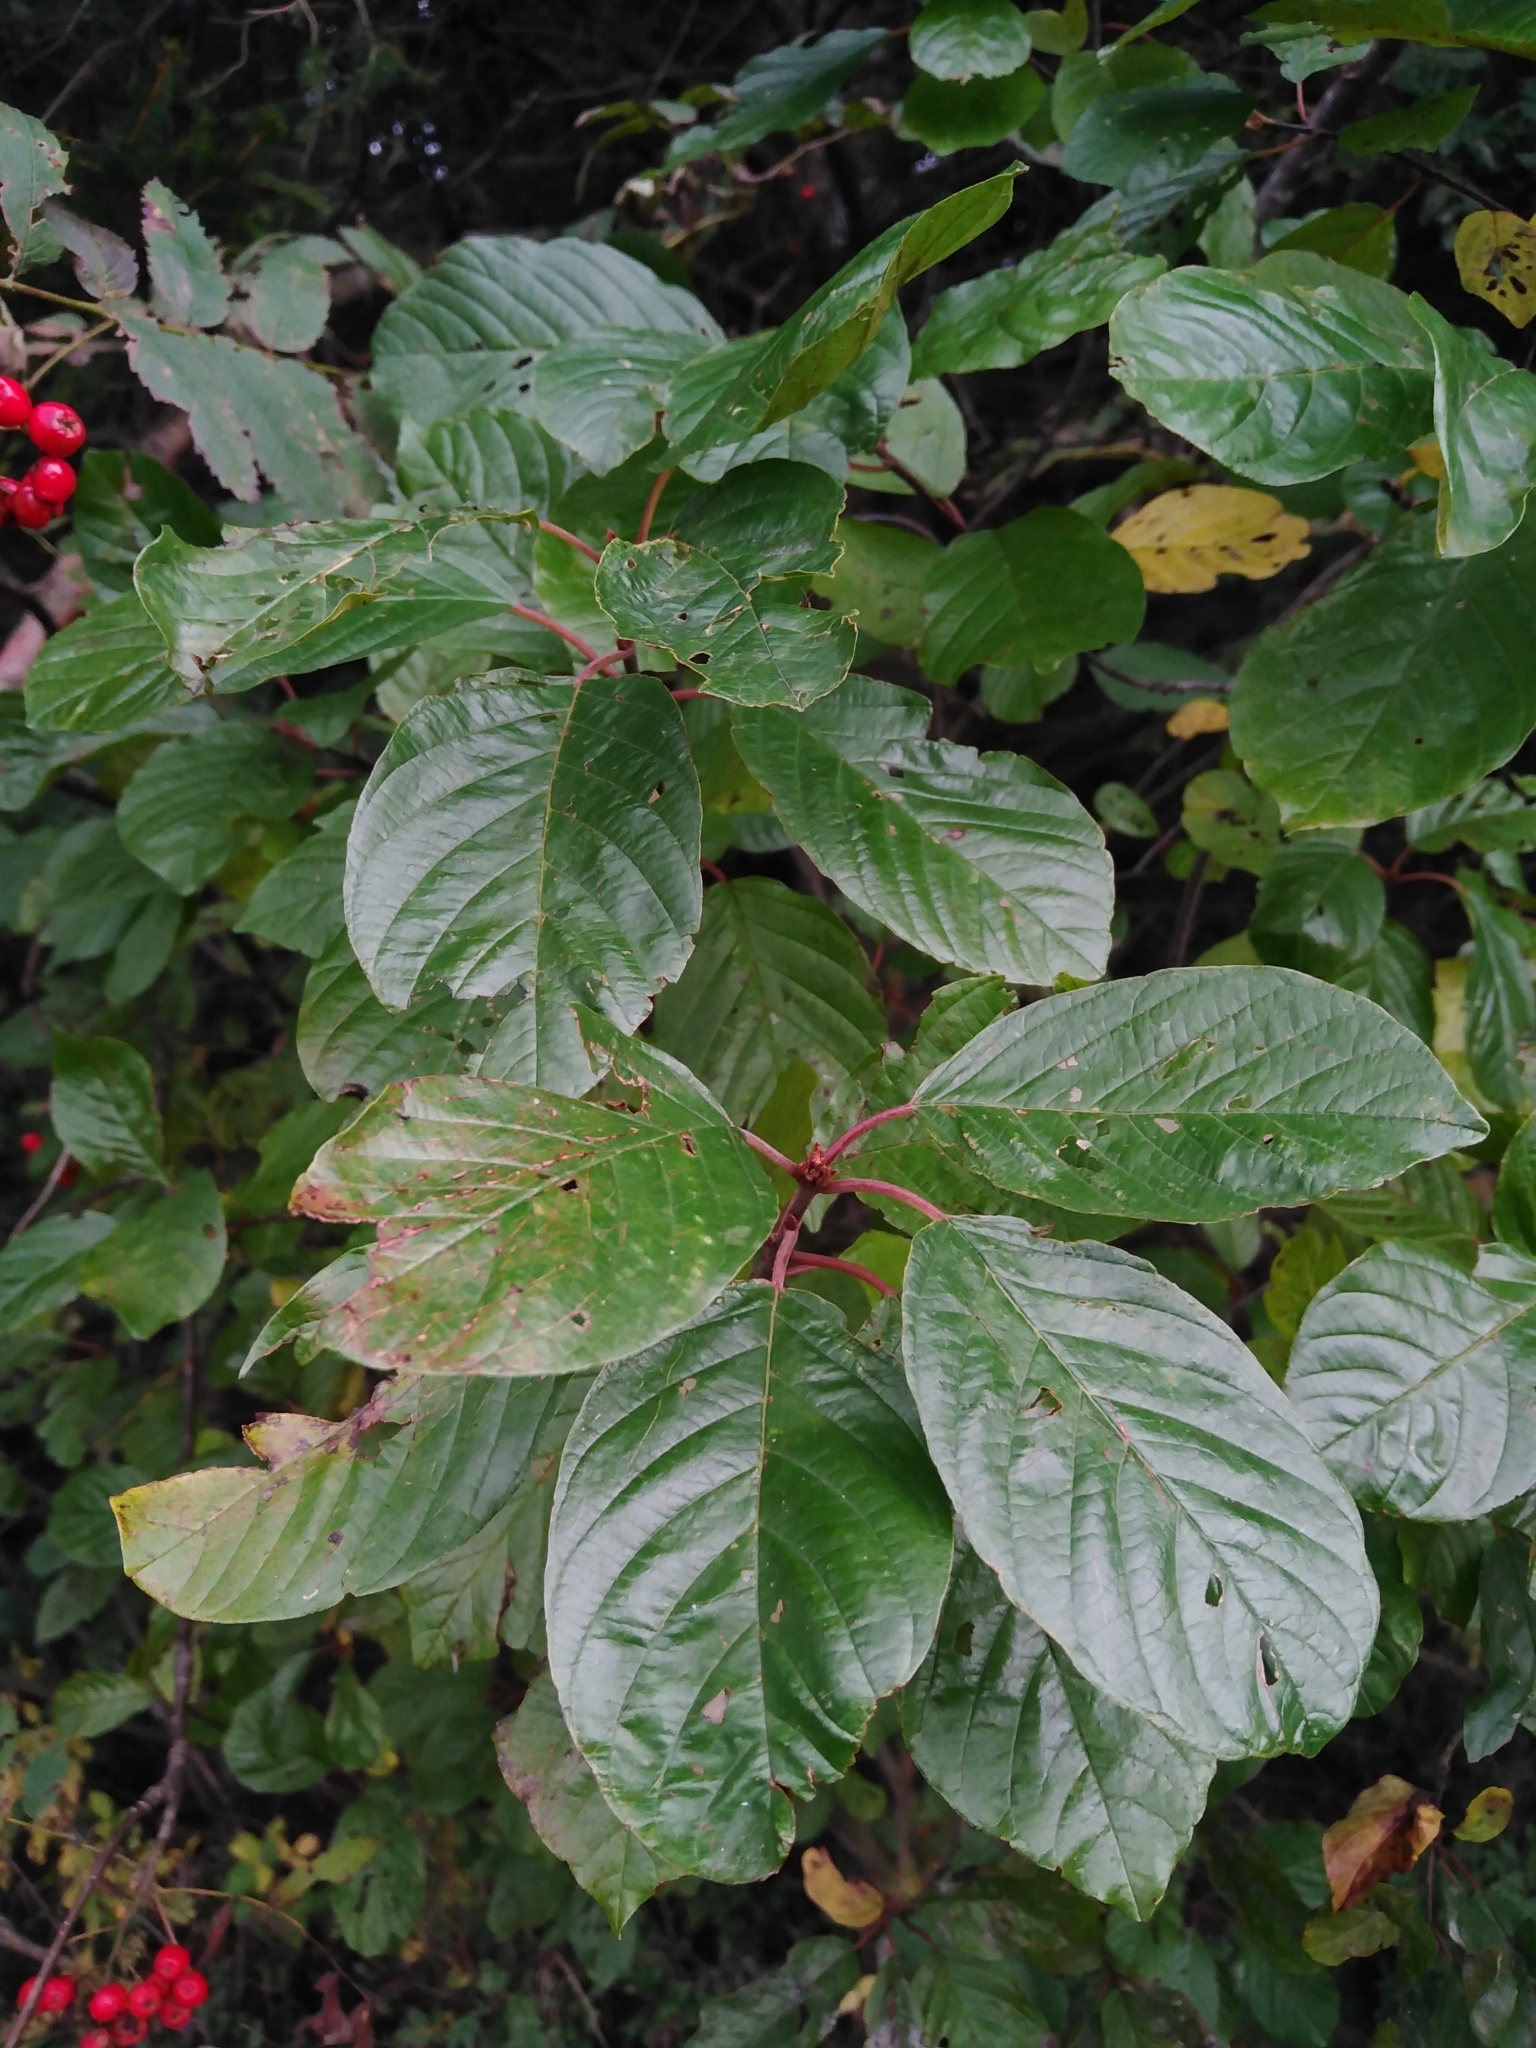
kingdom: Plantae
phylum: Tracheophyta
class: Magnoliopsida
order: Rosales
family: Rhamnaceae
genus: Frangula
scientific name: Frangula alnus
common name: Alder buckthorn
